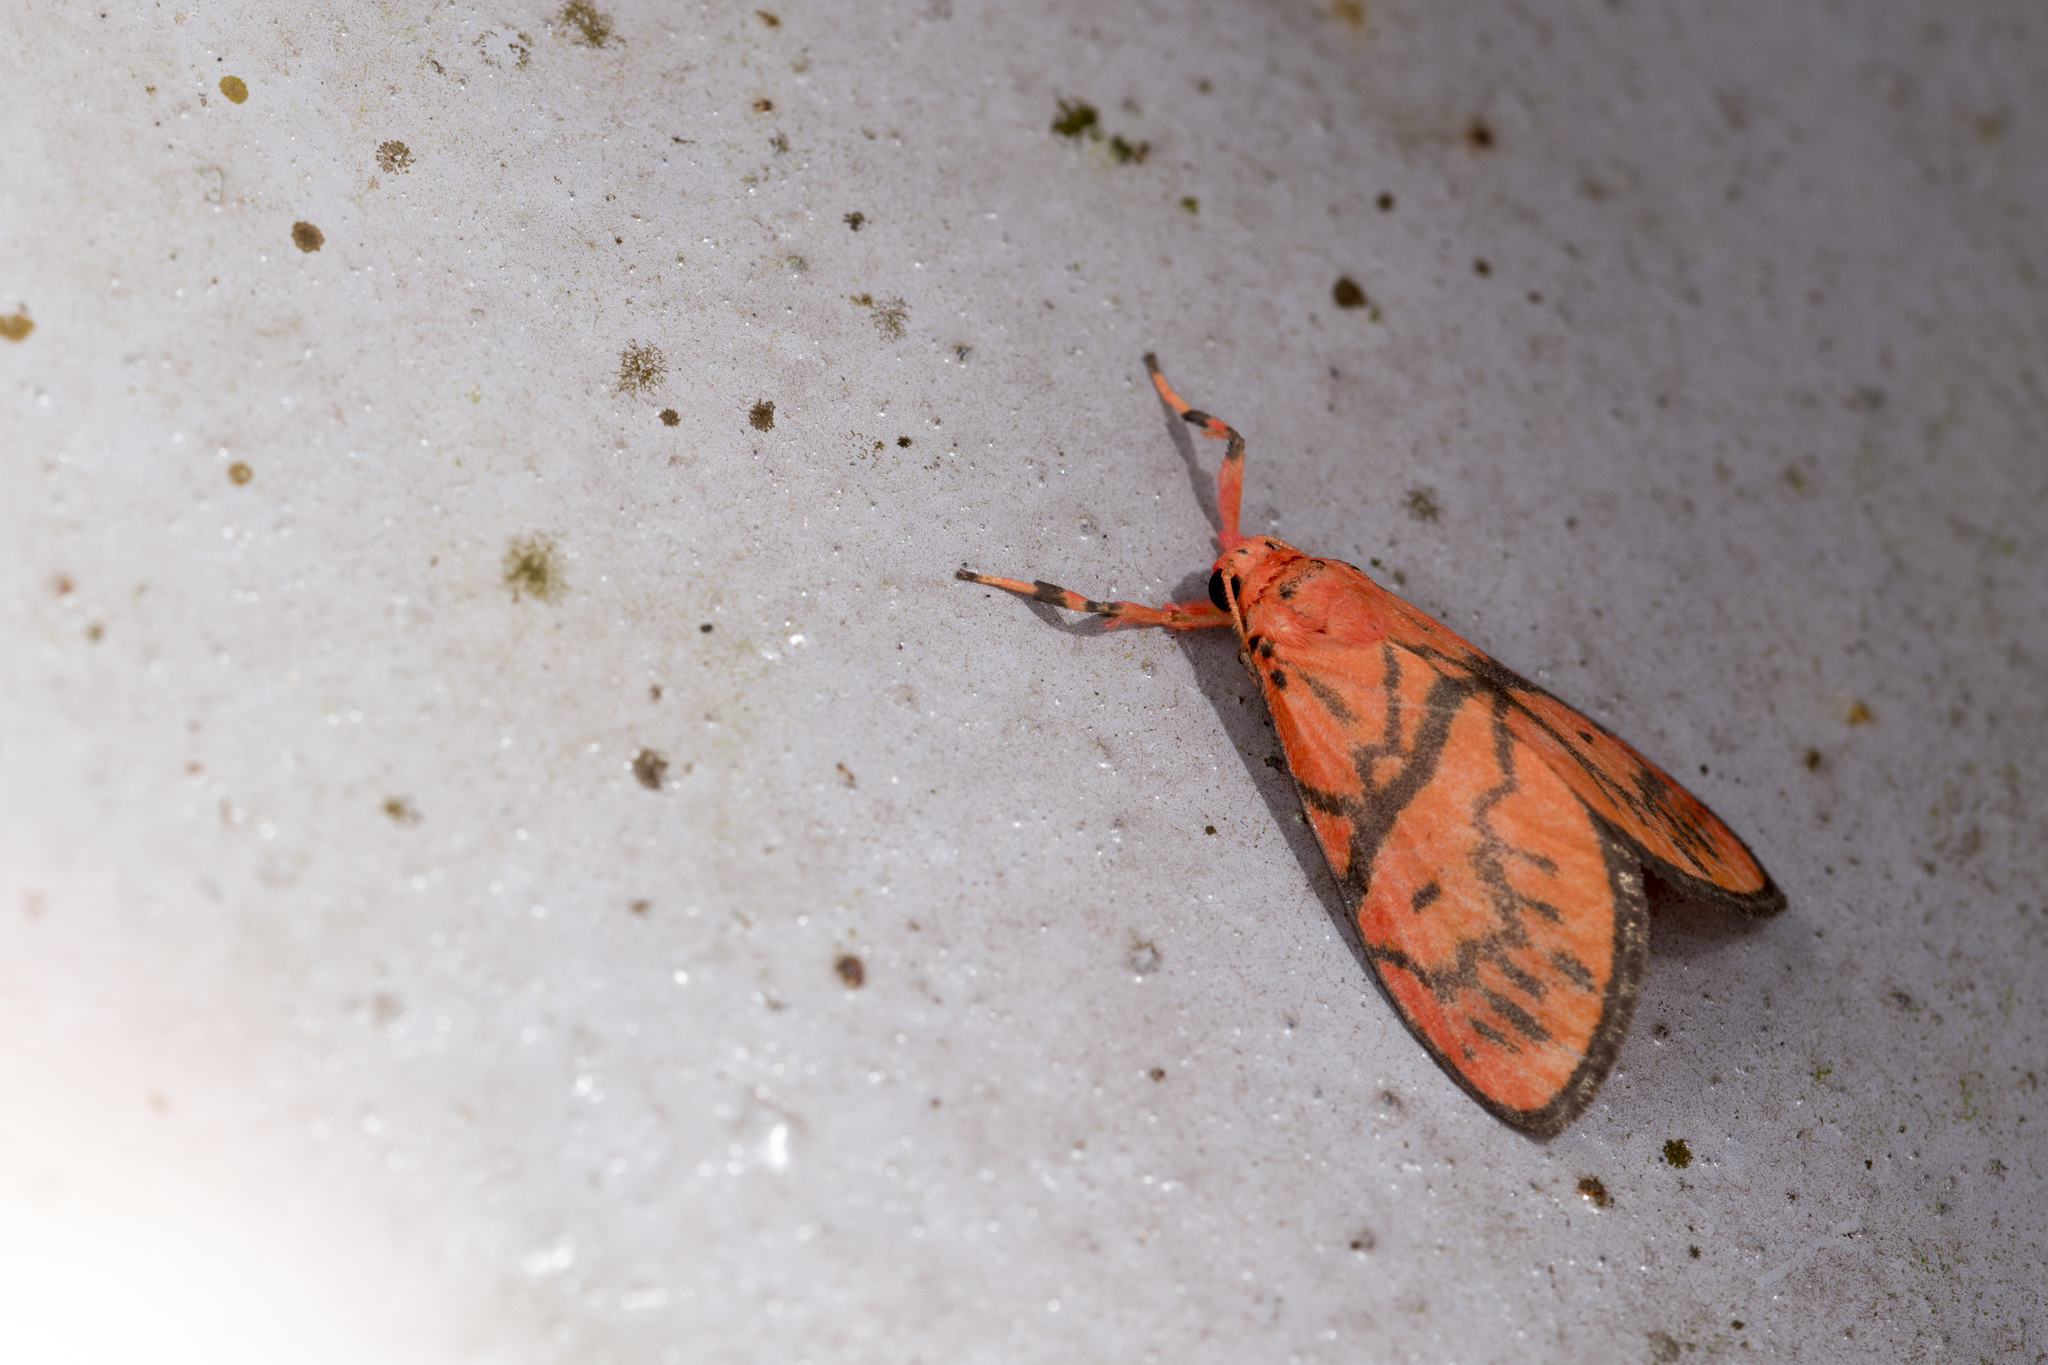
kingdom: Animalia
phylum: Arthropoda
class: Insecta
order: Lepidoptera
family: Erebidae
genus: Delineatia
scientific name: Delineatia tairadiata
